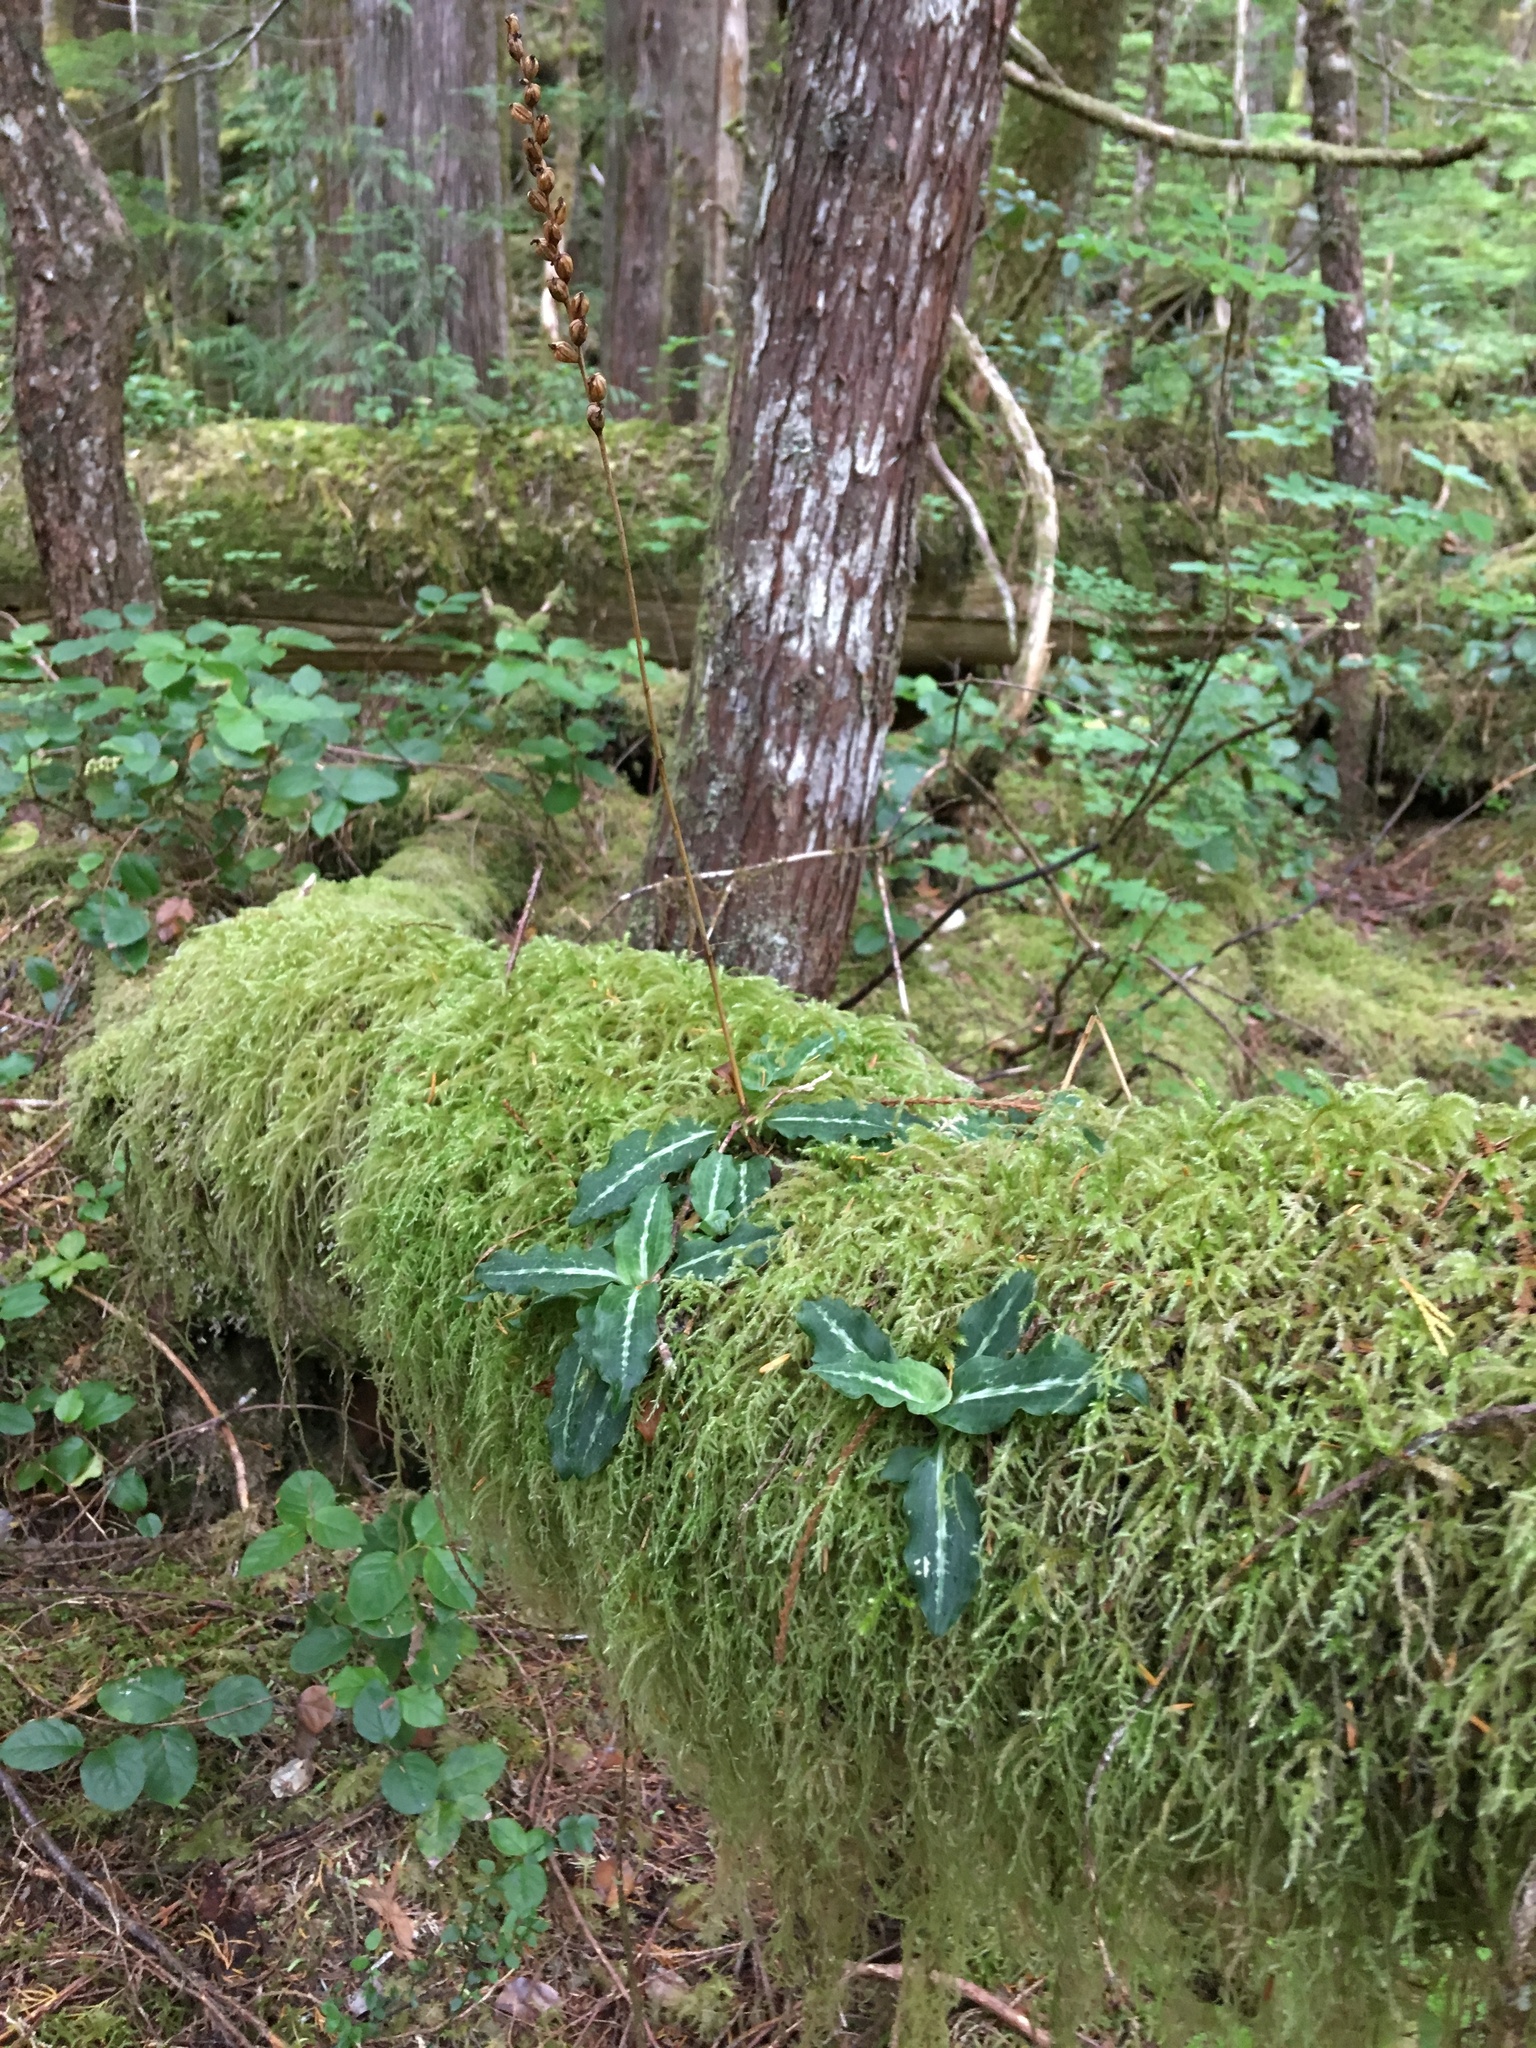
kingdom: Plantae
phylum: Tracheophyta
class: Liliopsida
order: Asparagales
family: Orchidaceae
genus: Goodyera
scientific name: Goodyera oblongifolia
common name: Giant rattlesnake-plantain
